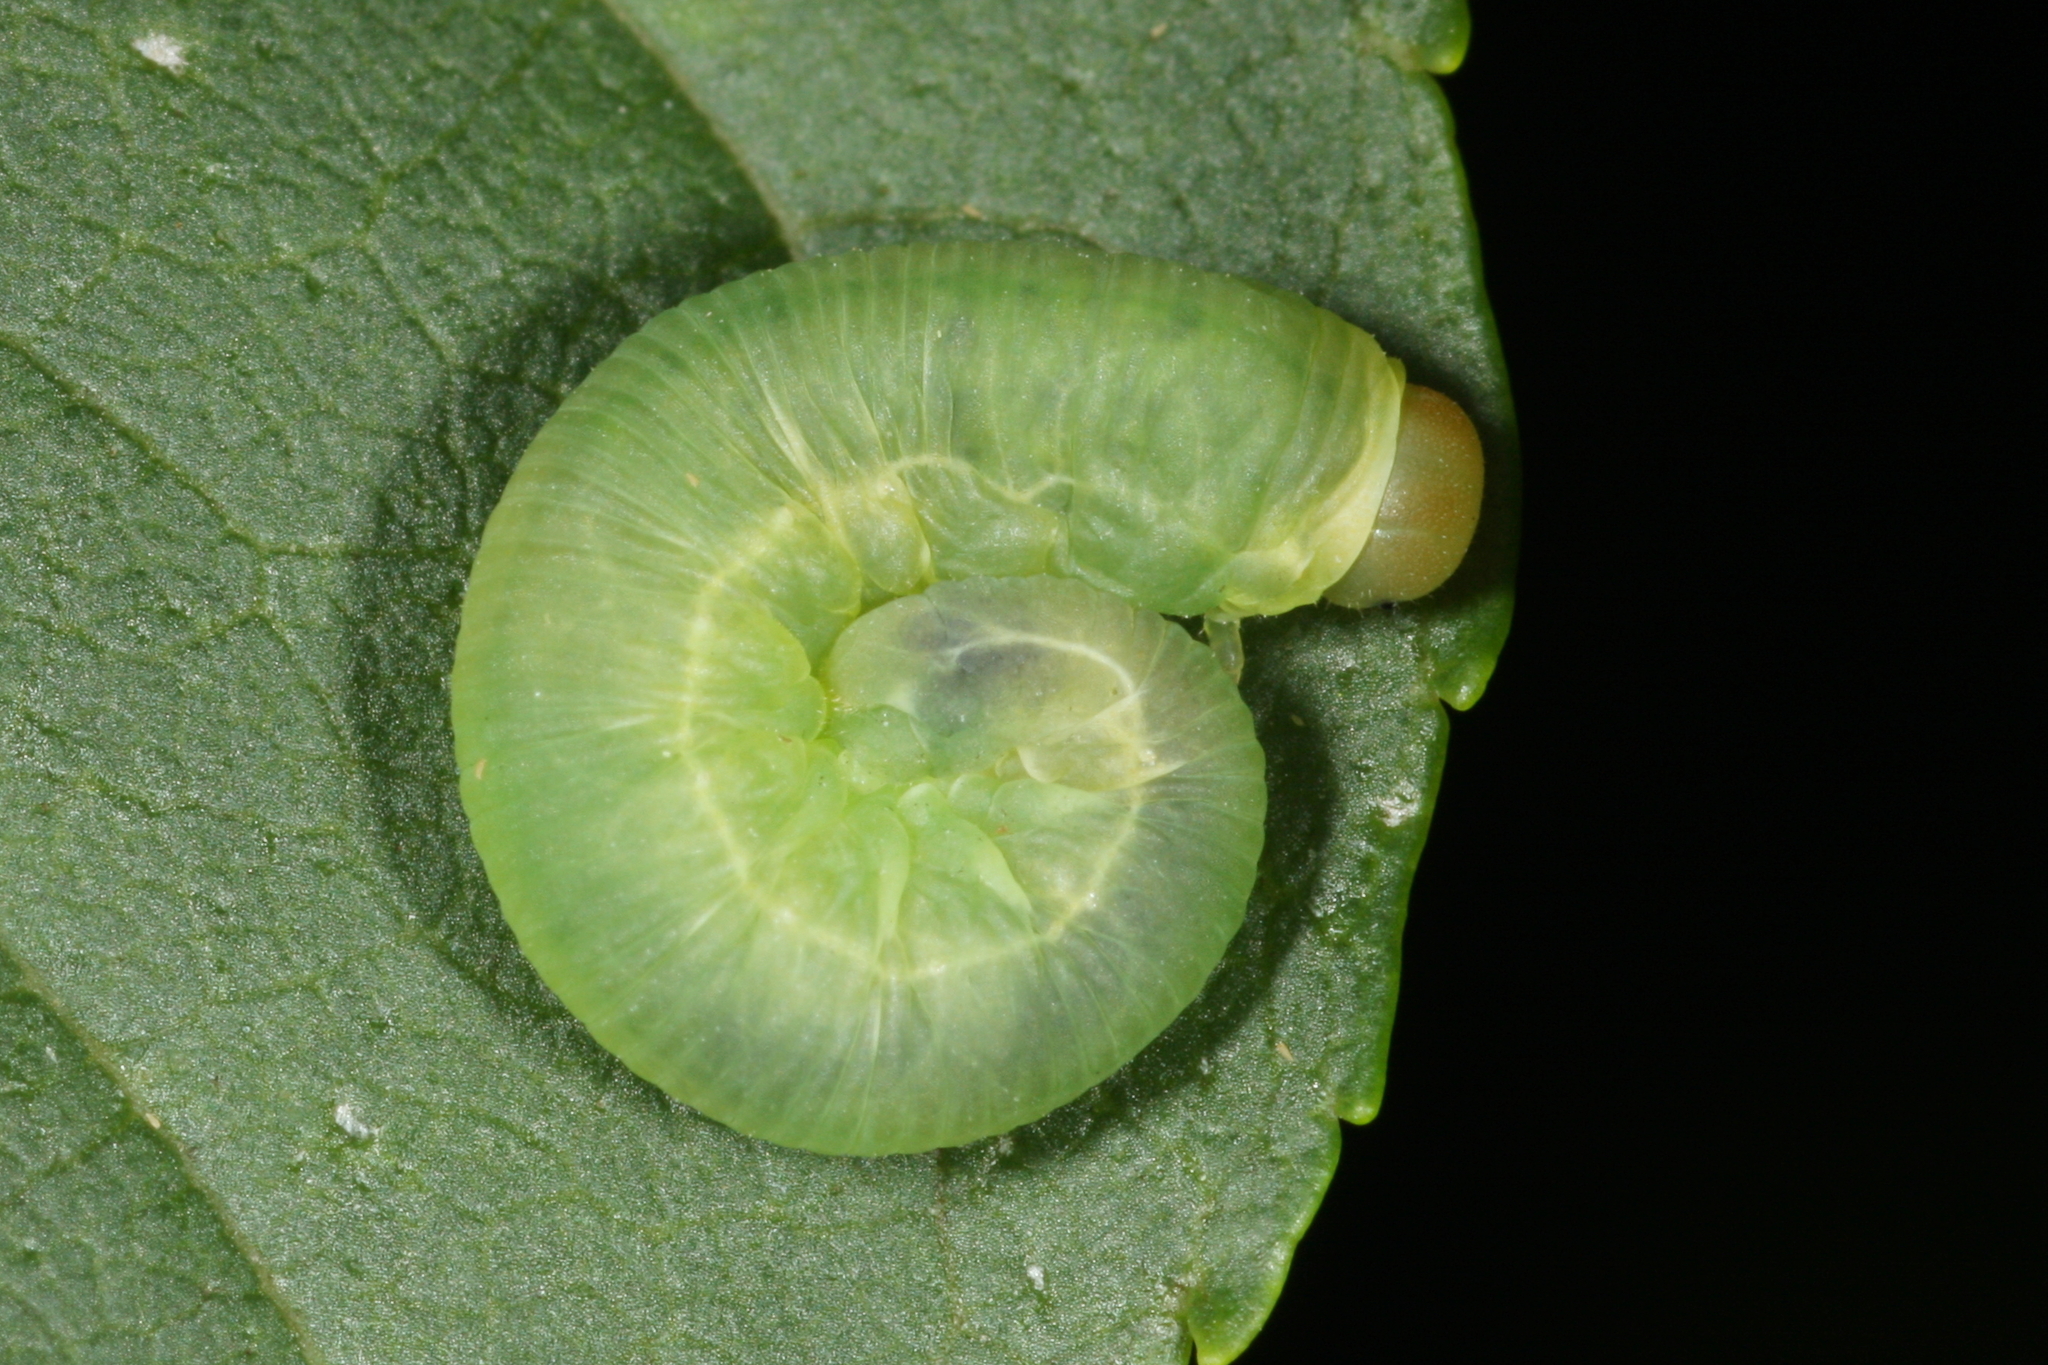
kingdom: Animalia
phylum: Arthropoda
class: Insecta
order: Hymenoptera
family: Tenthredinidae
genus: Macrophya
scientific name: Macrophya punctumalbum
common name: Sawfly
